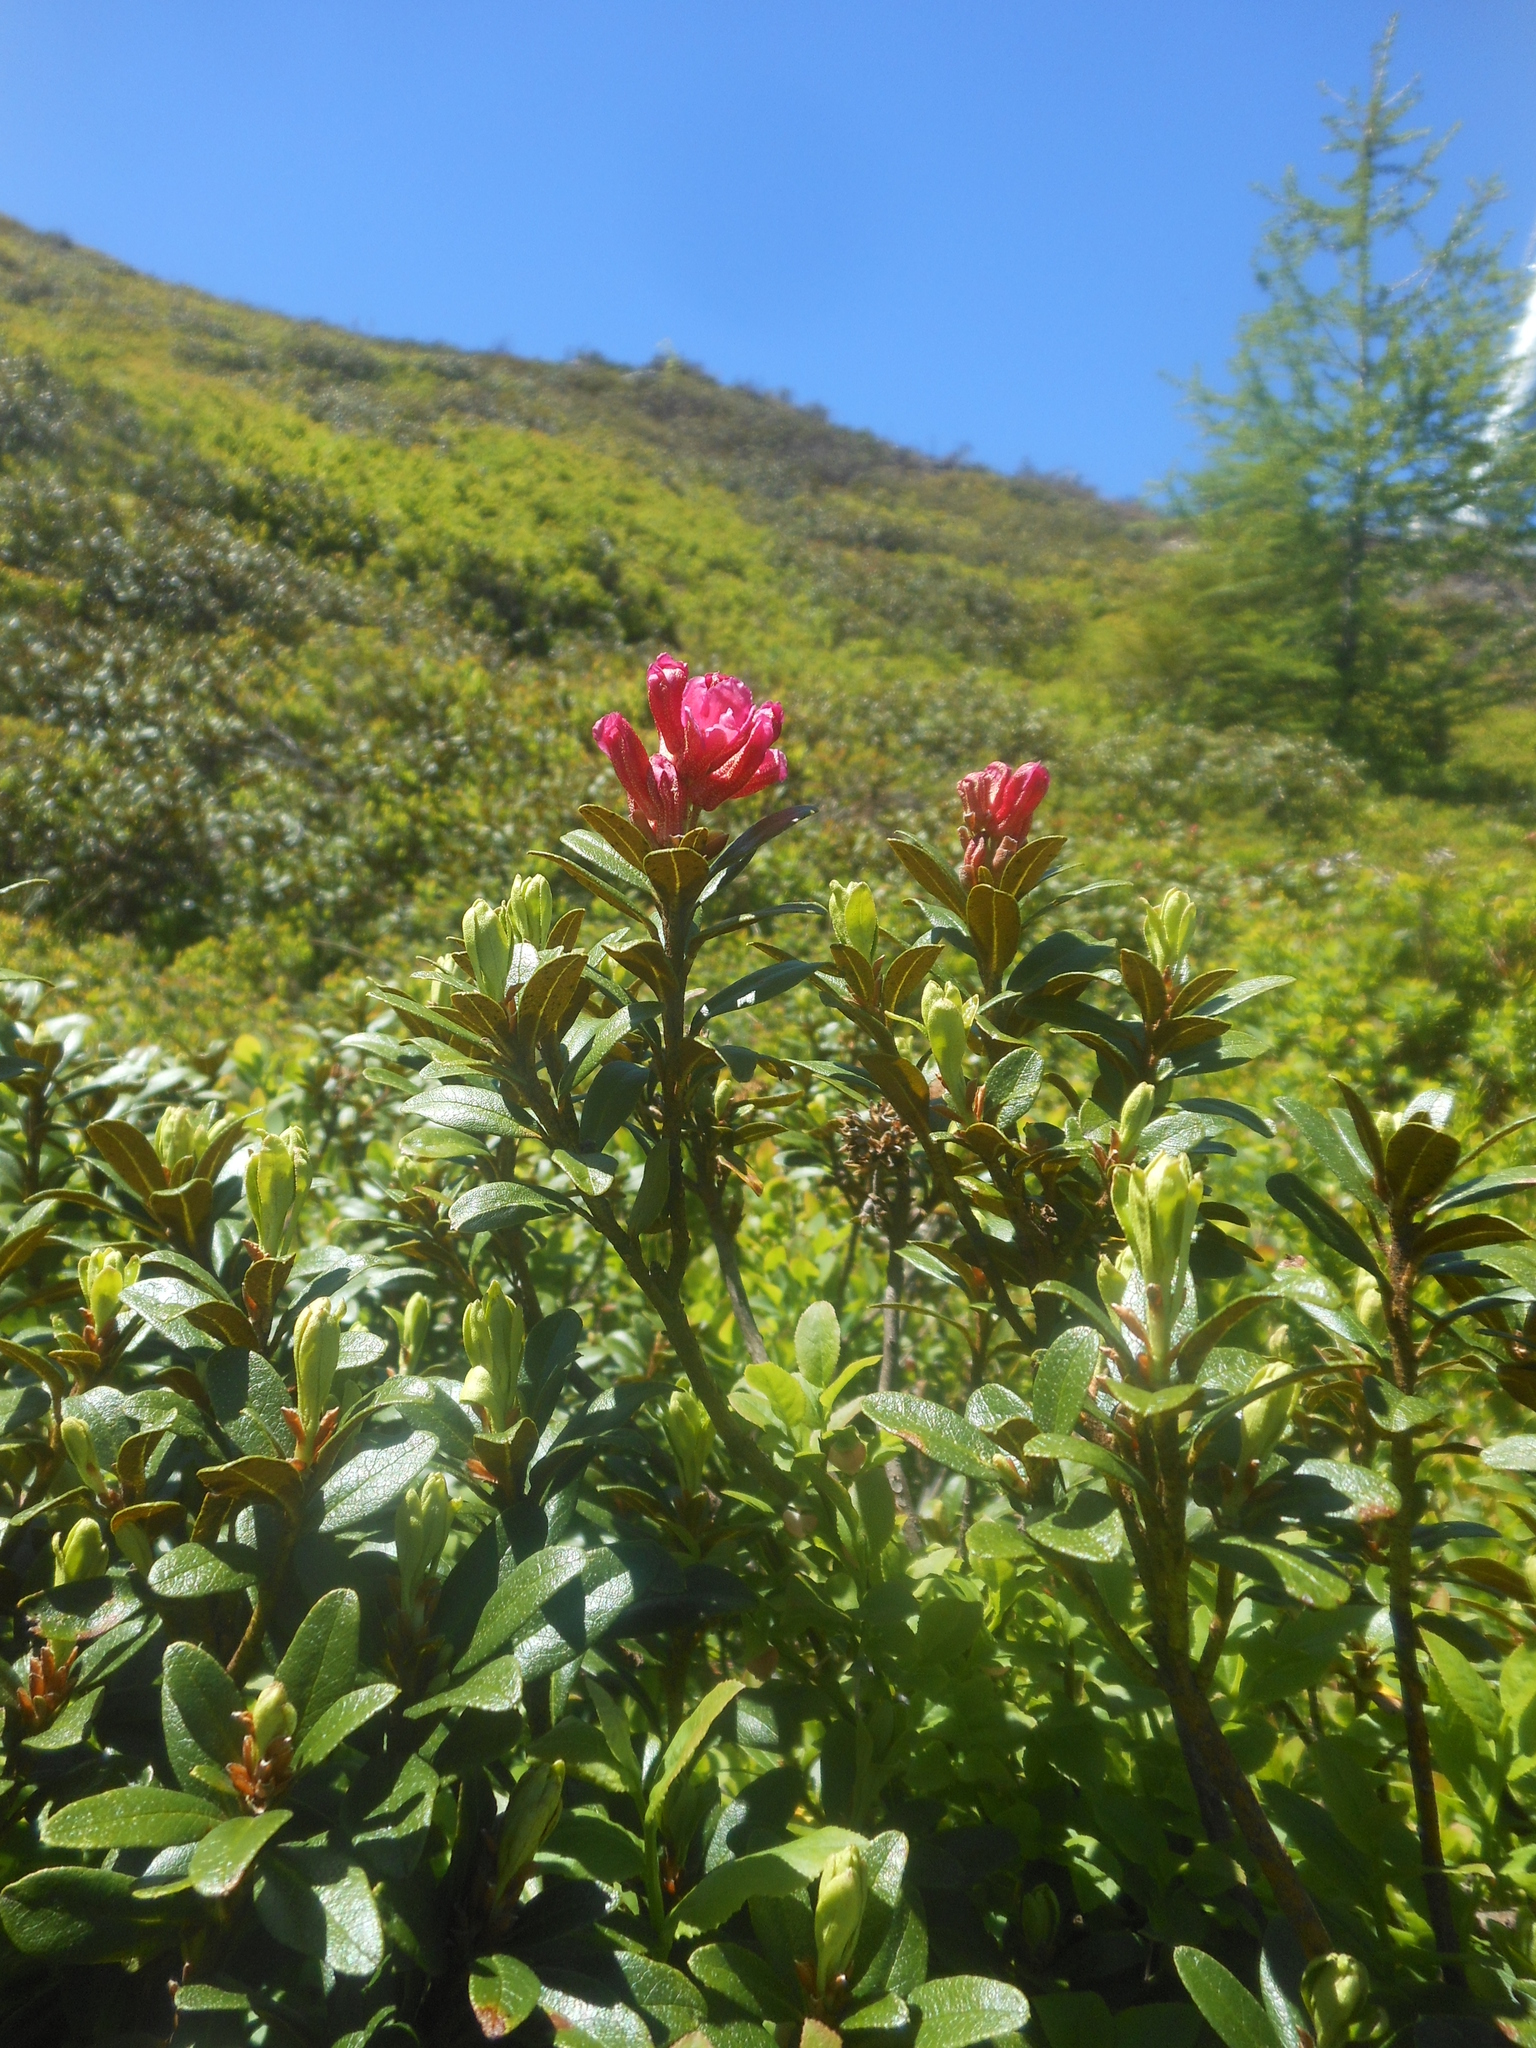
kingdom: Plantae
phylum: Tracheophyta
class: Magnoliopsida
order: Ericales
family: Ericaceae
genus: Rhododendron
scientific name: Rhododendron ferrugineum
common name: Alpenrose
